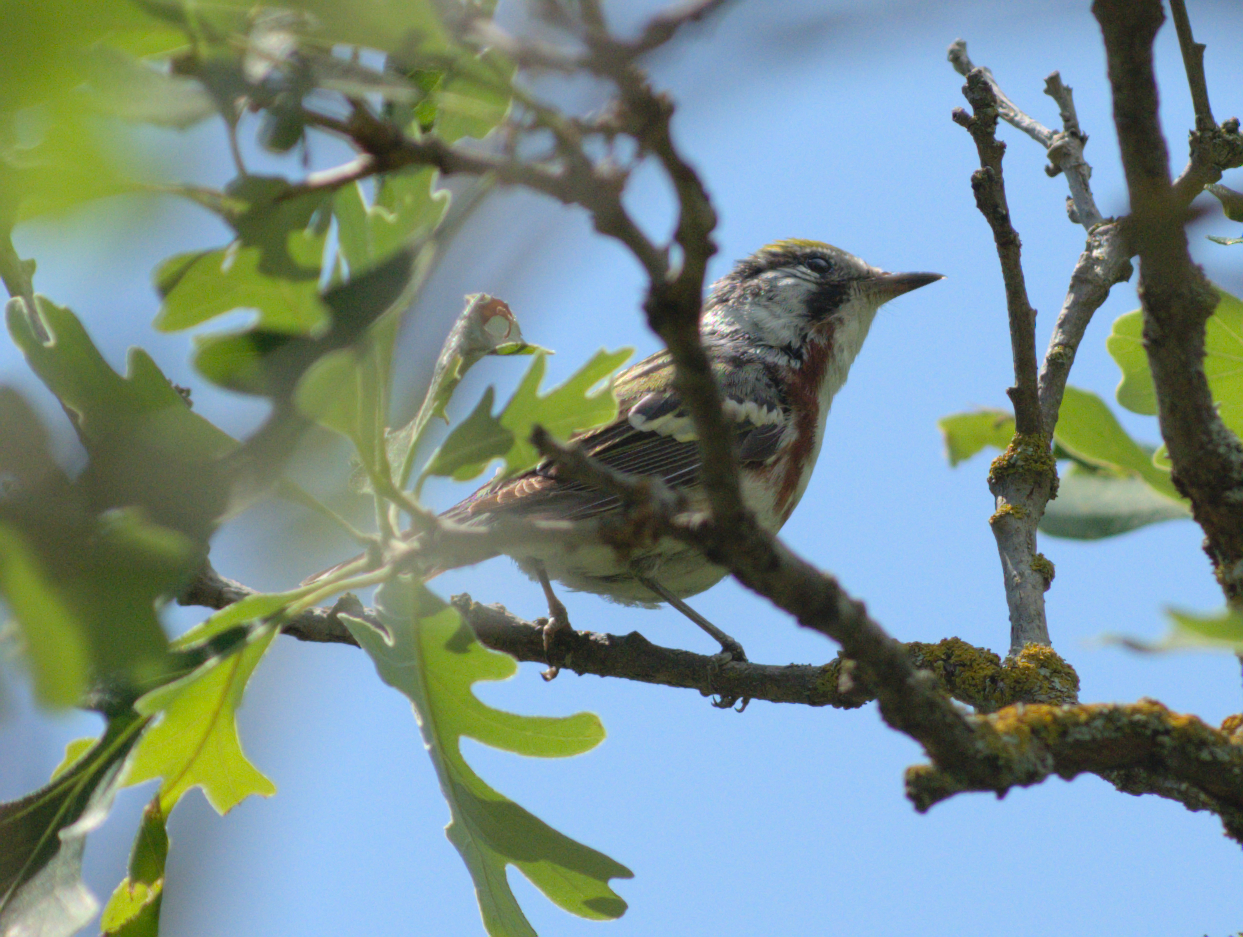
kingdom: Animalia
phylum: Chordata
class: Aves
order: Passeriformes
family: Parulidae
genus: Setophaga
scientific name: Setophaga pensylvanica
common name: Chestnut-sided warbler
